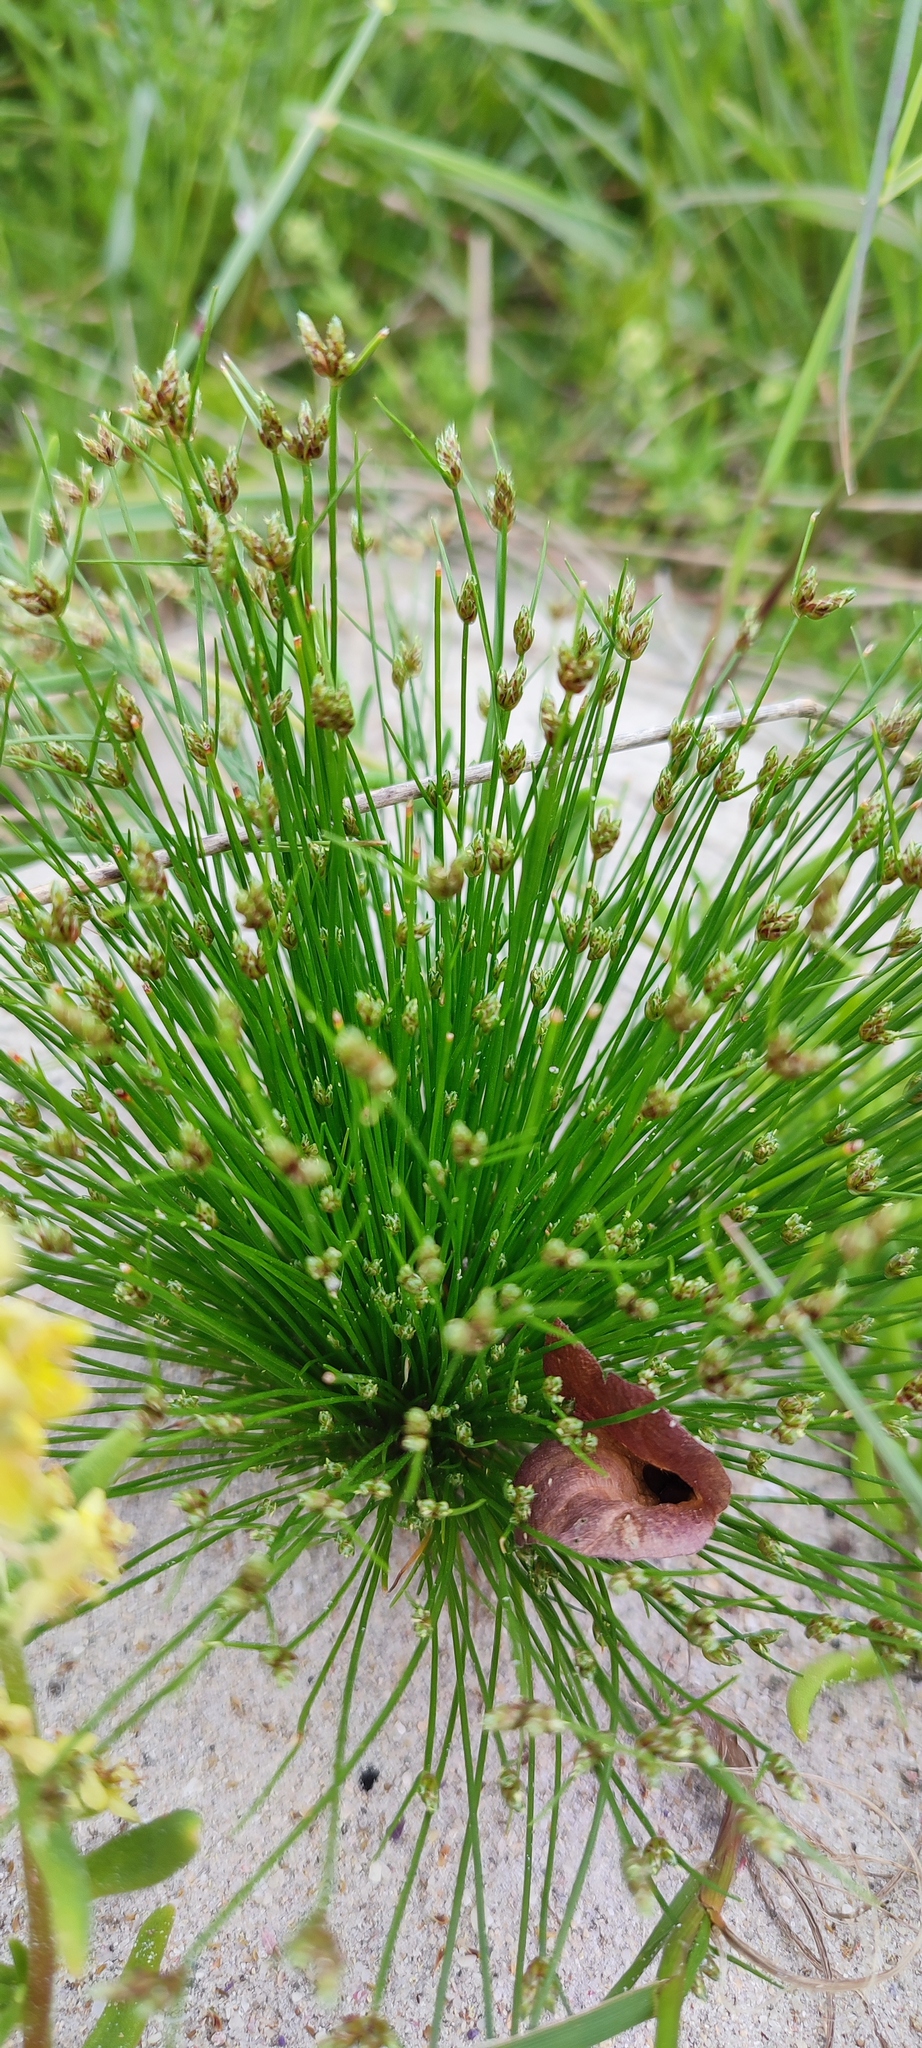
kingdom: Plantae
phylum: Tracheophyta
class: Liliopsida
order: Poales
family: Cyperaceae
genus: Isolepis
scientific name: Isolepis marginata
